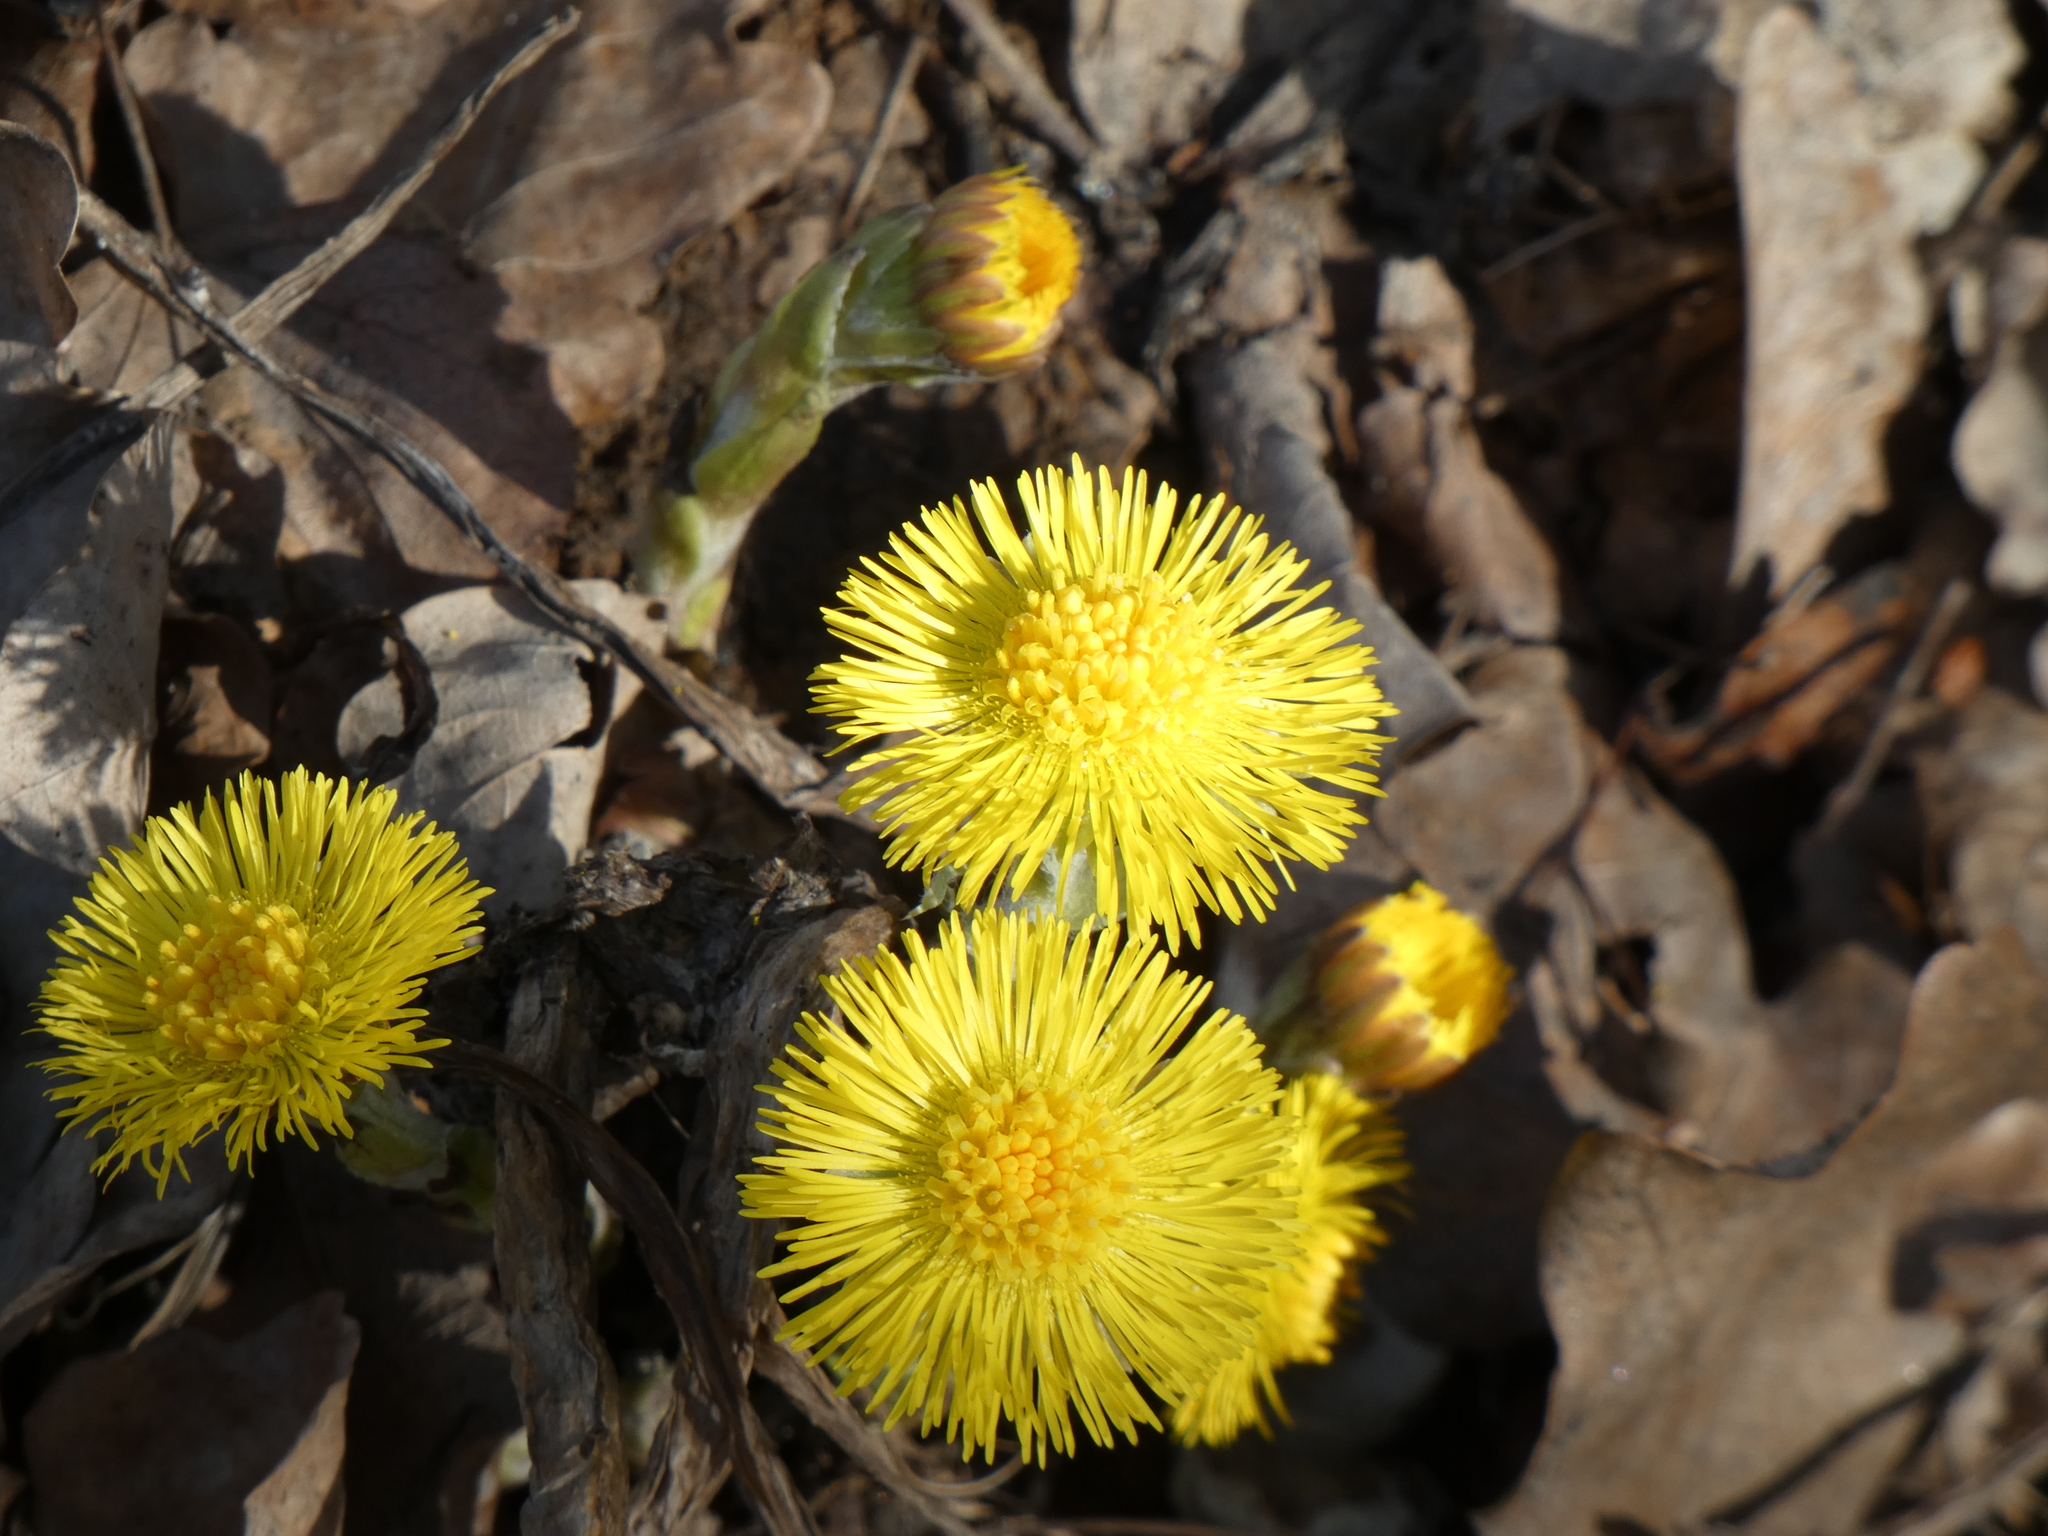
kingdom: Plantae
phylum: Tracheophyta
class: Magnoliopsida
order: Asterales
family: Asteraceae
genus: Tussilago
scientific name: Tussilago farfara
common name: Coltsfoot
